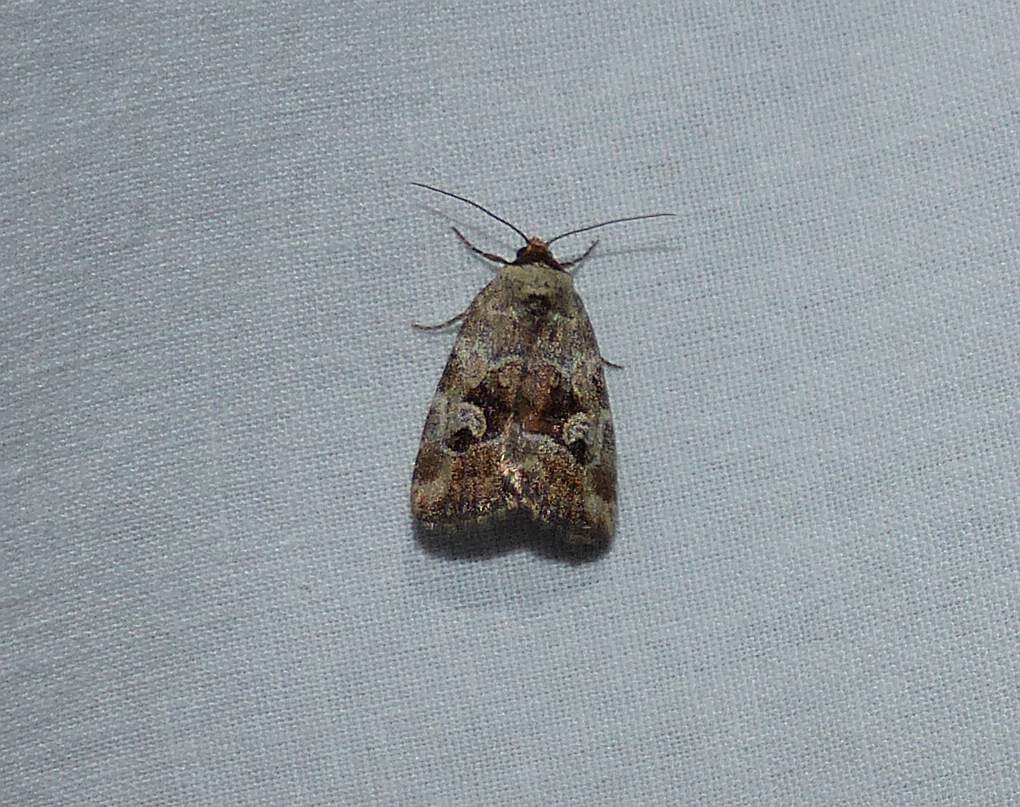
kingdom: Animalia
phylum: Arthropoda
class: Insecta
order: Lepidoptera
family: Noctuidae
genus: Elaphria
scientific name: Elaphria alapallida
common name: Pale-winged midget
